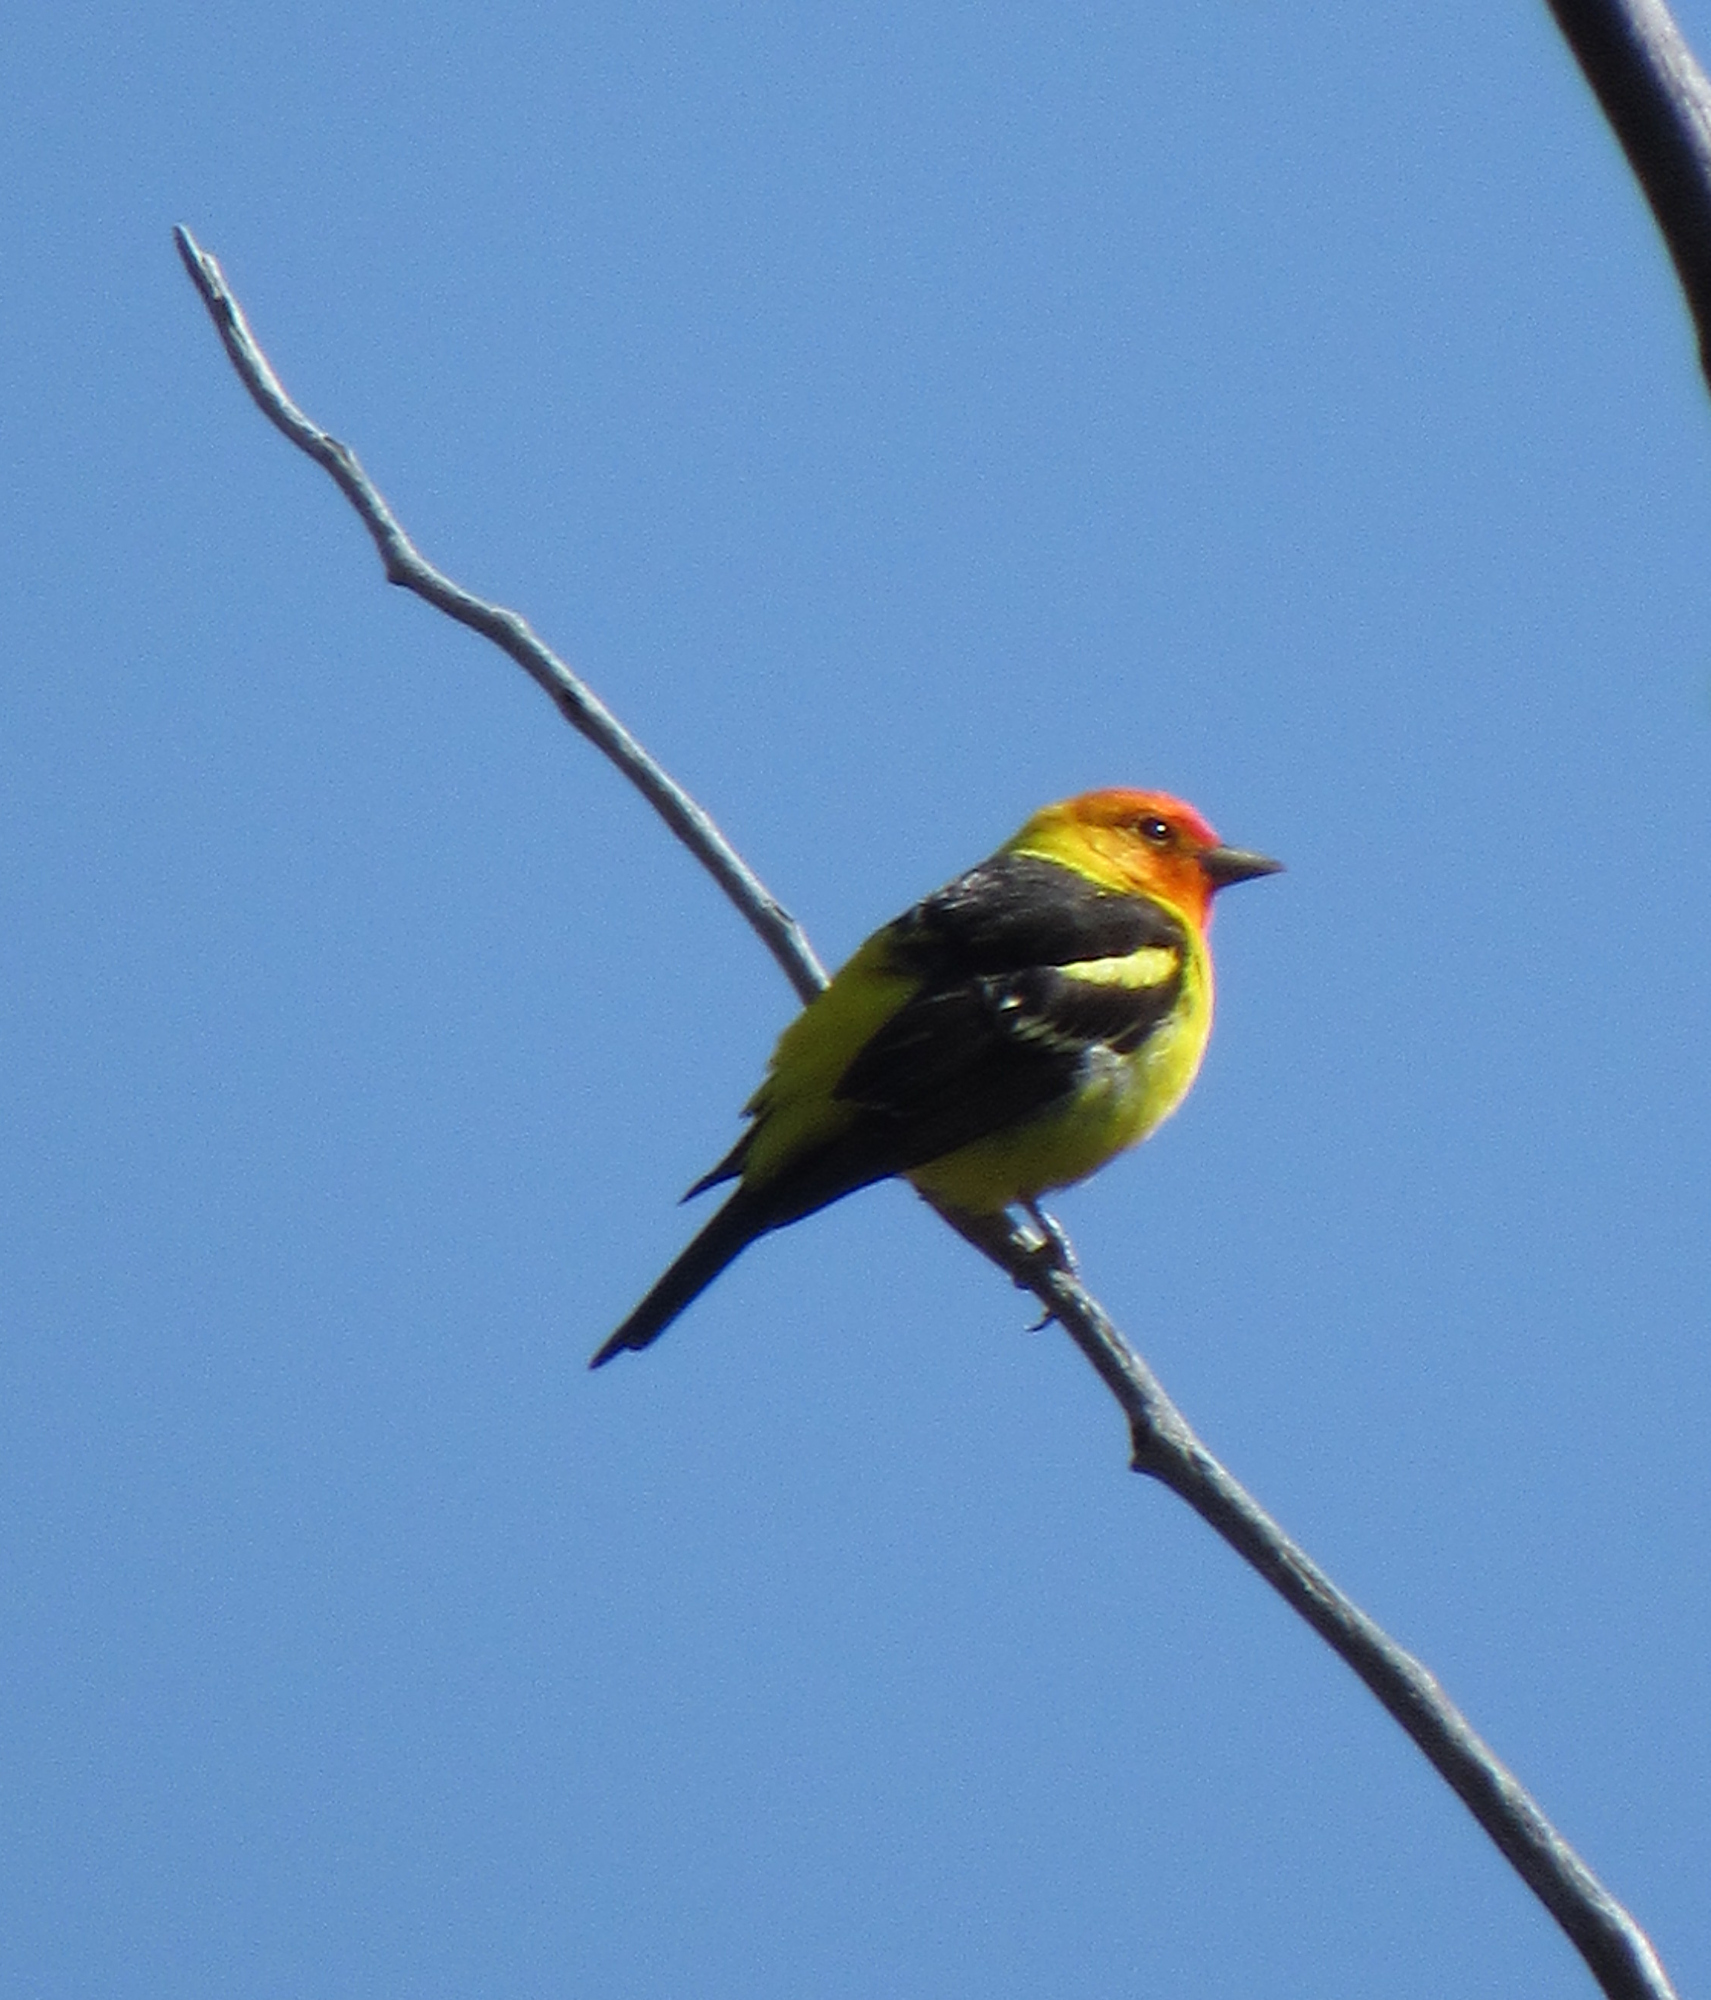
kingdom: Animalia
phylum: Chordata
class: Aves
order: Passeriformes
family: Cardinalidae
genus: Piranga
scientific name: Piranga ludoviciana
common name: Western tanager
